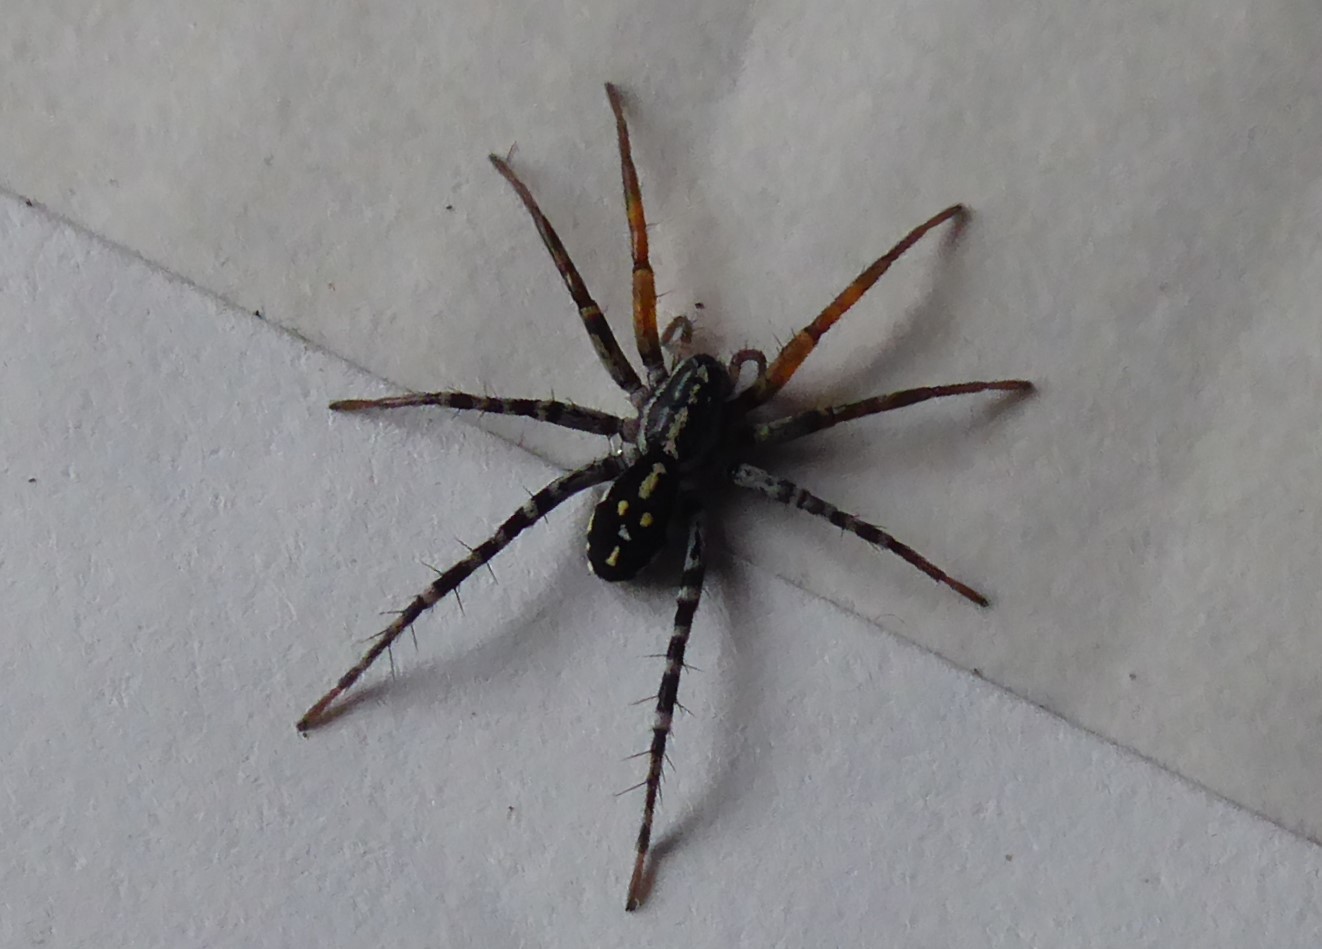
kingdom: Animalia
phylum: Arthropoda
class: Arachnida
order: Araneae
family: Corinnidae
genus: Nyssus
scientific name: Nyssus coloripes
